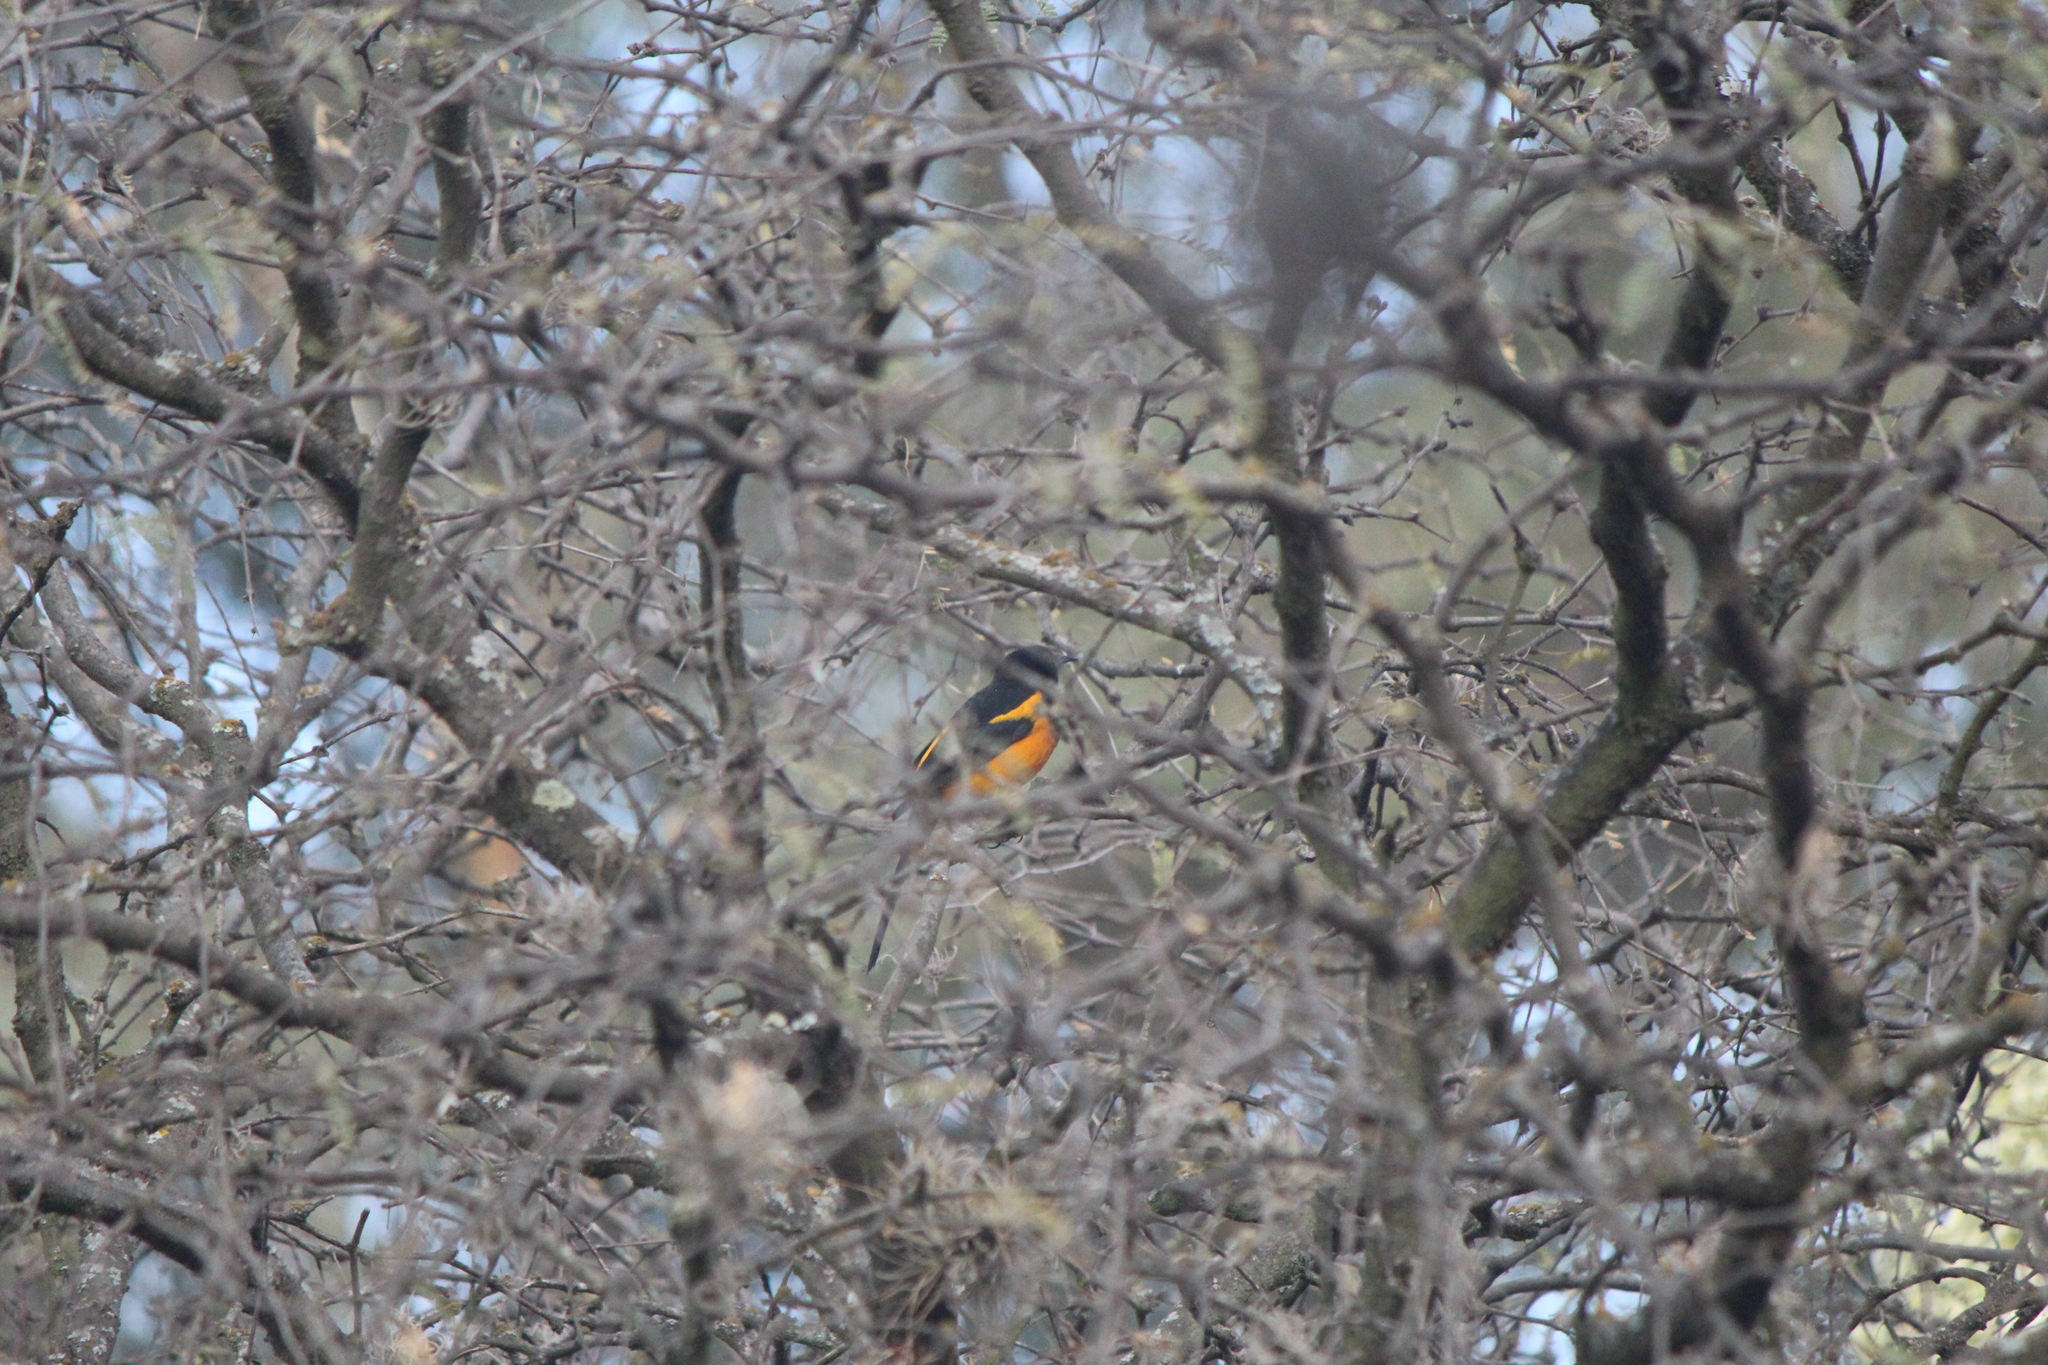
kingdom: Animalia
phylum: Chordata
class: Aves
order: Passeriformes
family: Icteridae
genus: Icterus
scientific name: Icterus wagleri
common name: Black-vented oriole
